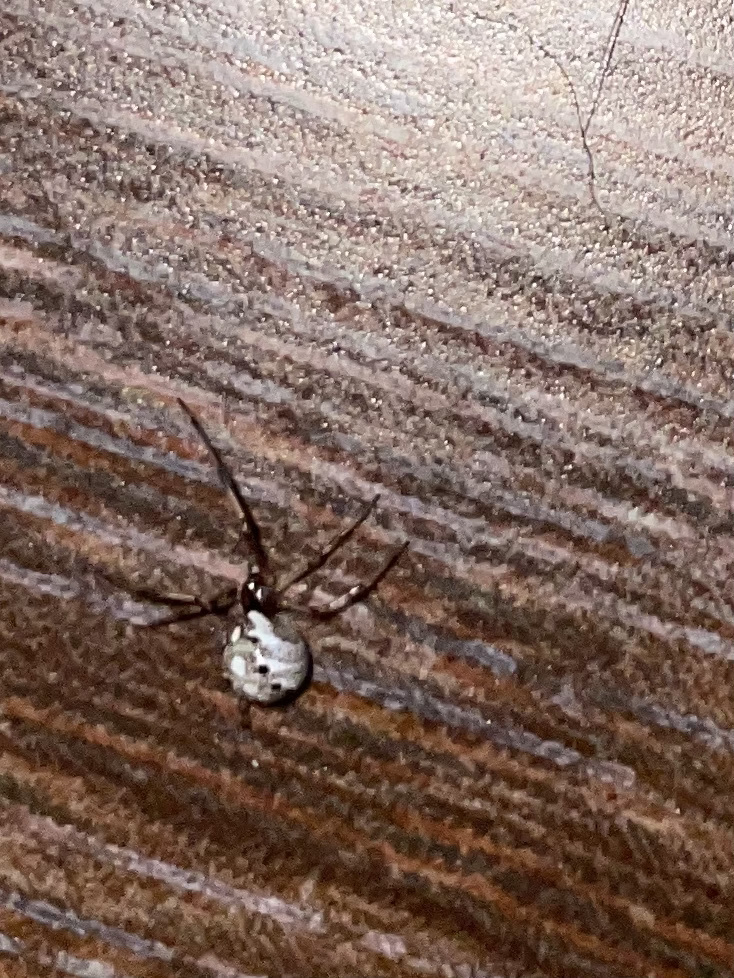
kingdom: Animalia
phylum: Arthropoda
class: Arachnida
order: Araneae
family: Theridiidae
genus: Latrodectus
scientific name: Latrodectus geometricus
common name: Brown widow spider
